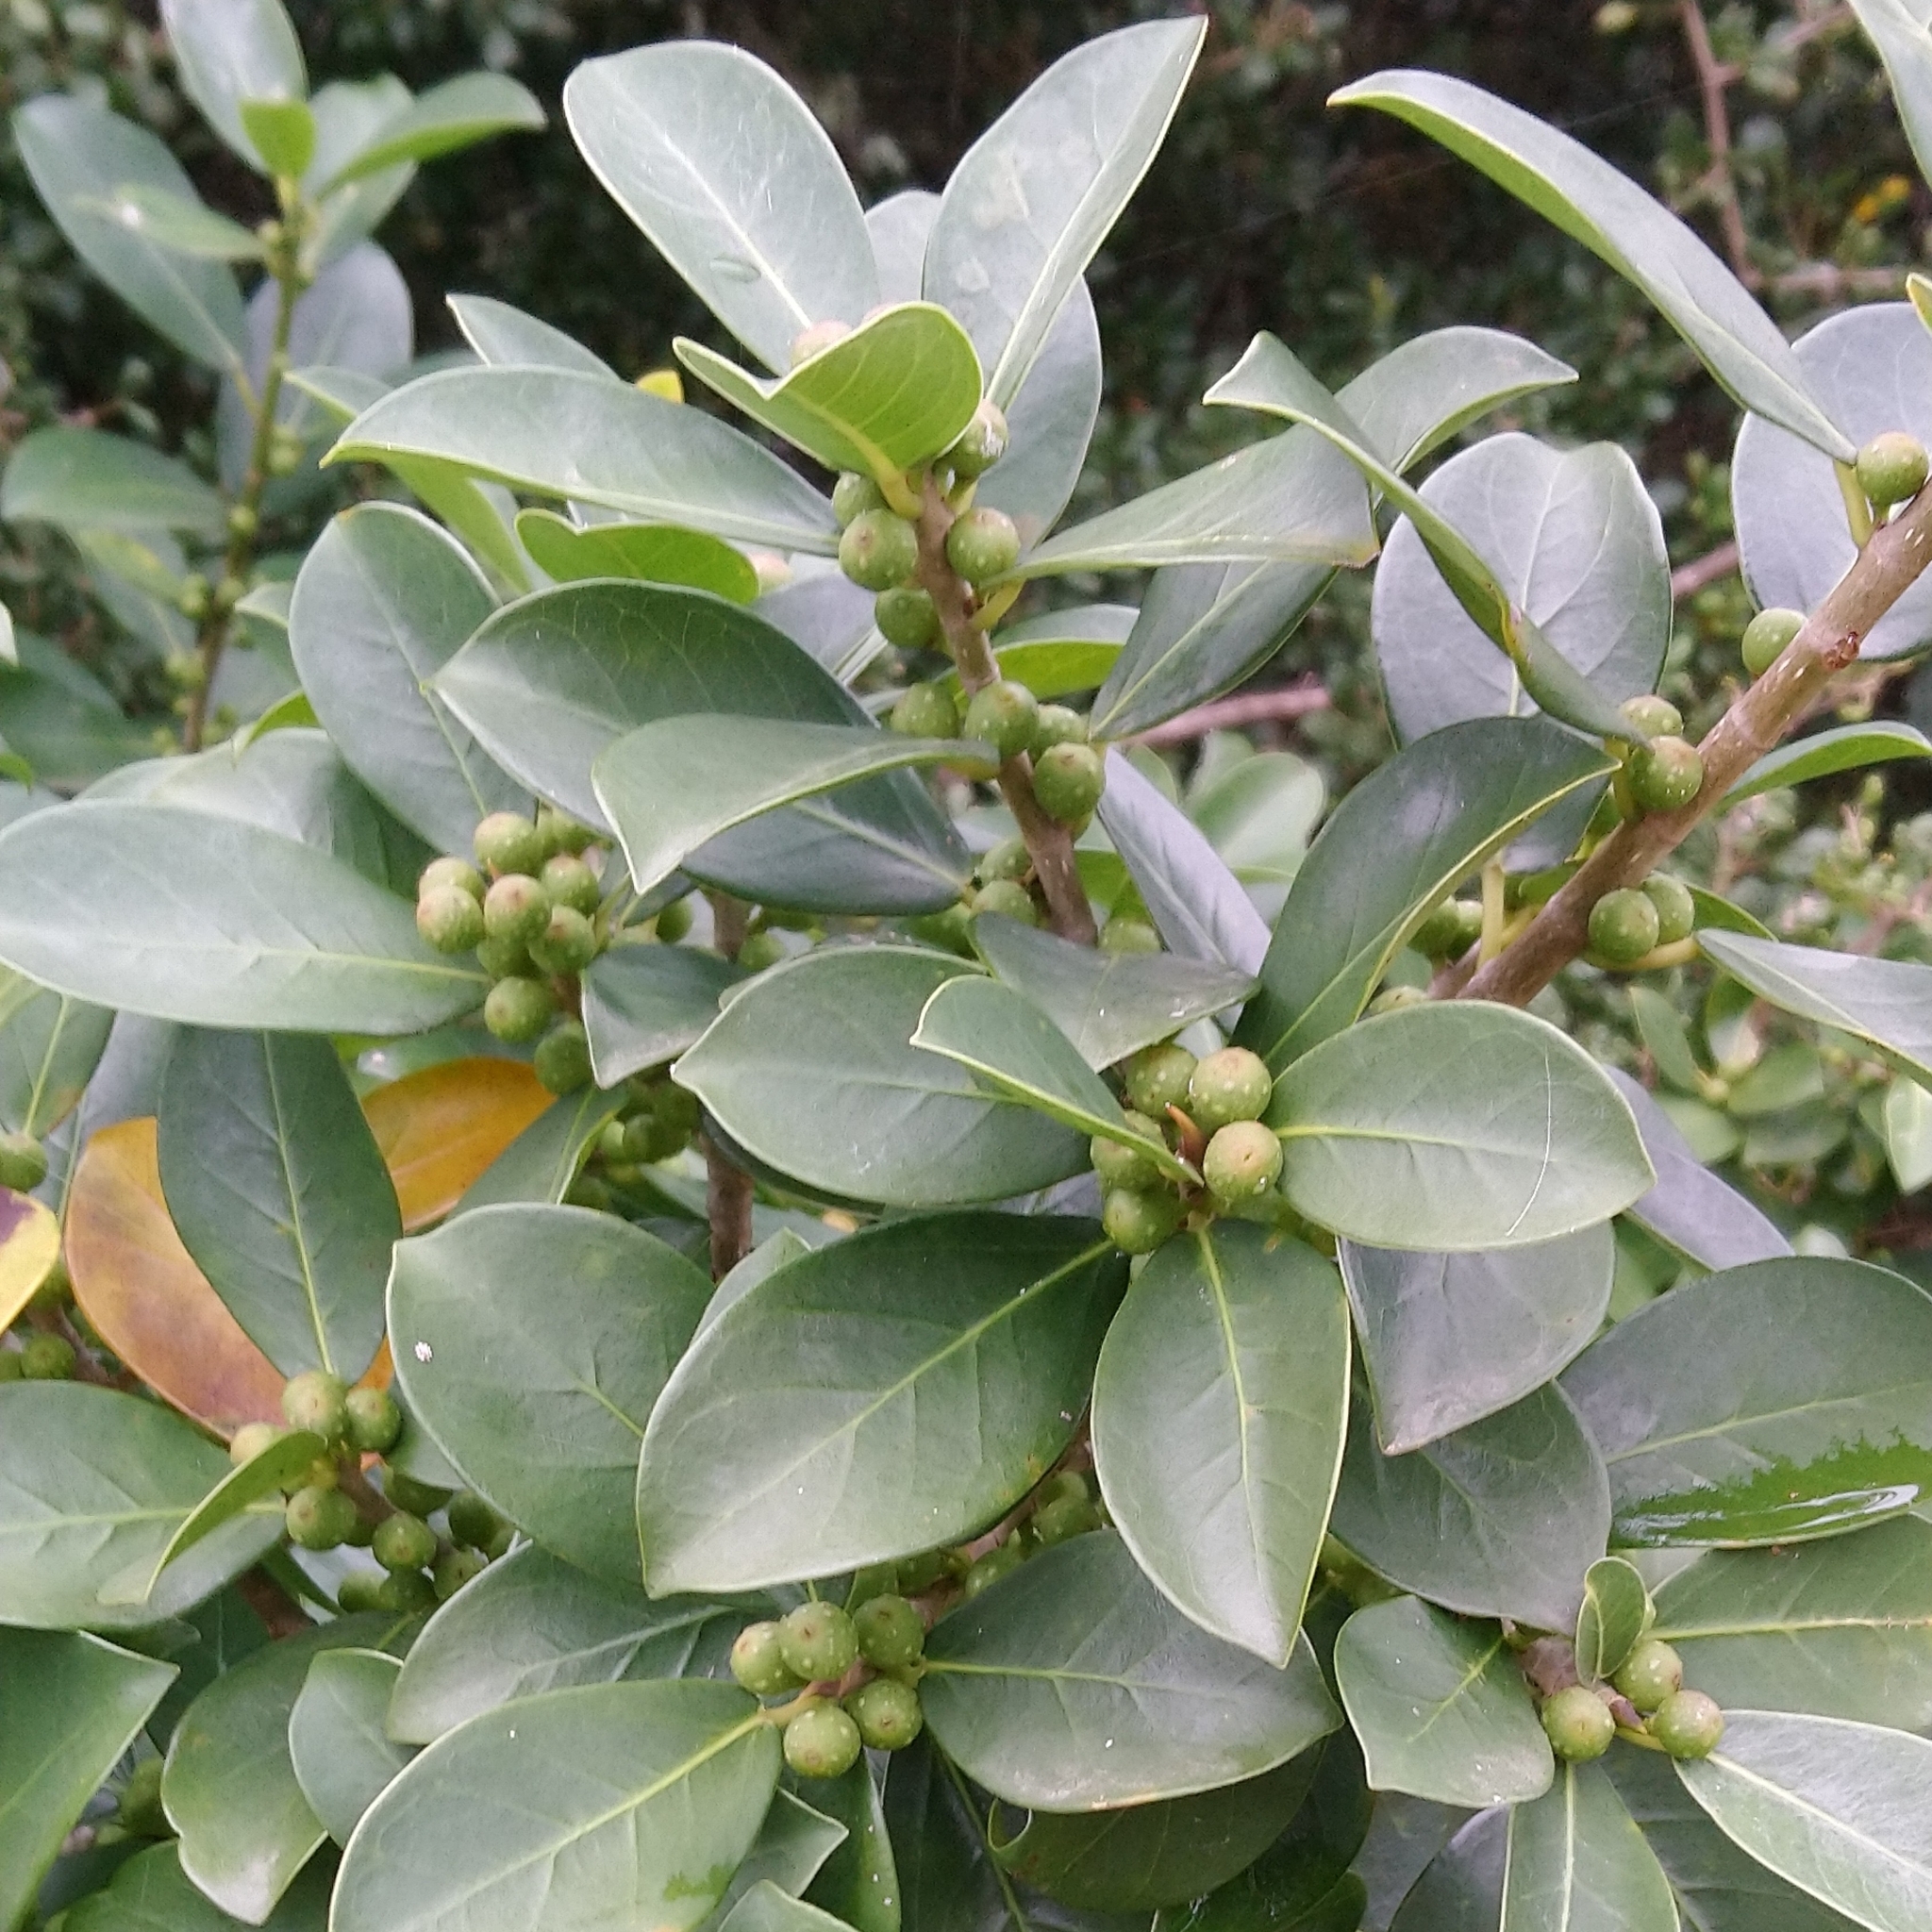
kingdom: Plantae
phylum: Tracheophyta
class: Magnoliopsida
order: Rosales
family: Moraceae
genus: Ficus
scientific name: Ficus burtt-davyi
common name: Scrambling fig
